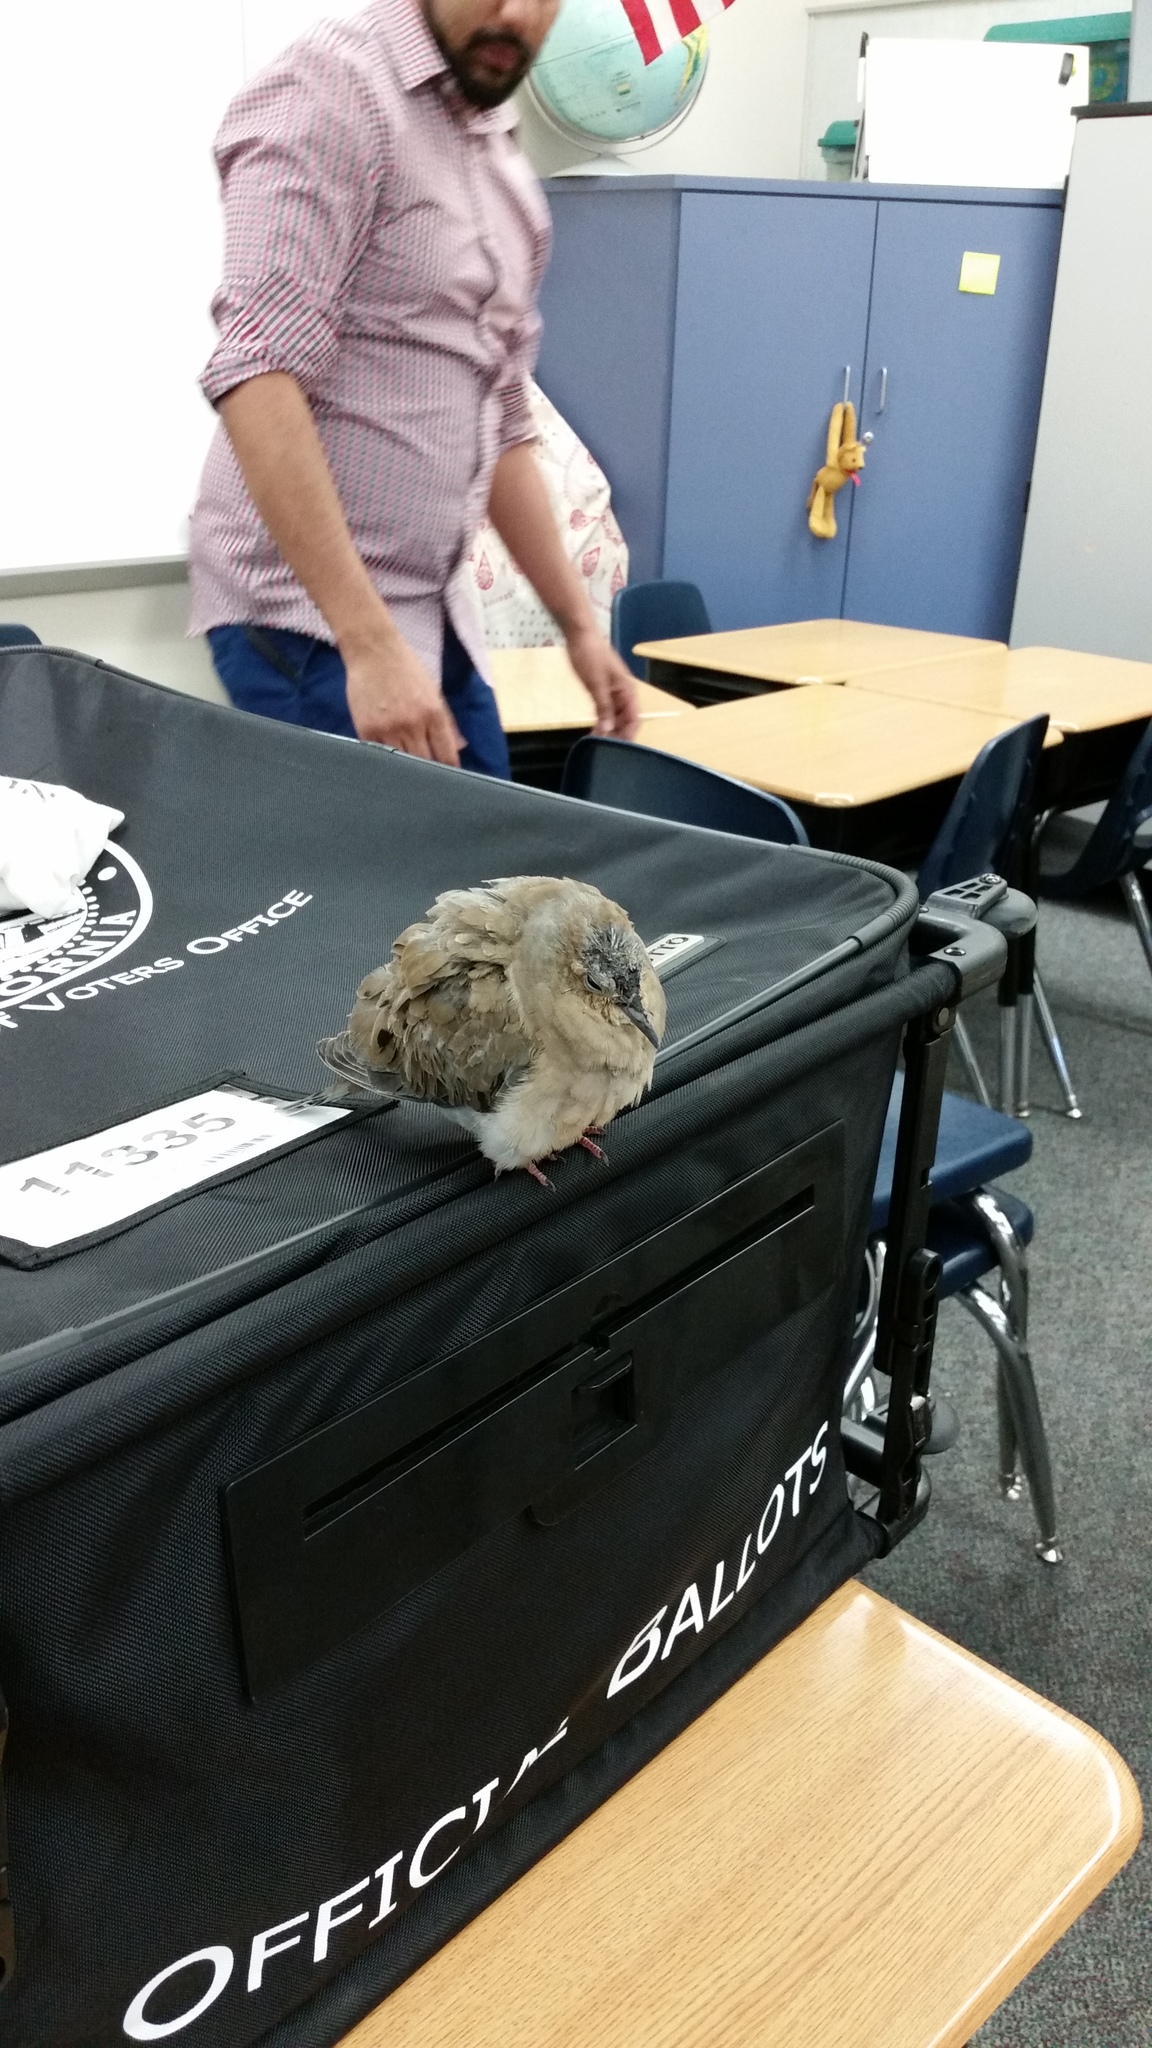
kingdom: Animalia
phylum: Chordata
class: Aves
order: Columbiformes
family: Columbidae
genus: Zenaida
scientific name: Zenaida macroura
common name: Mourning dove
